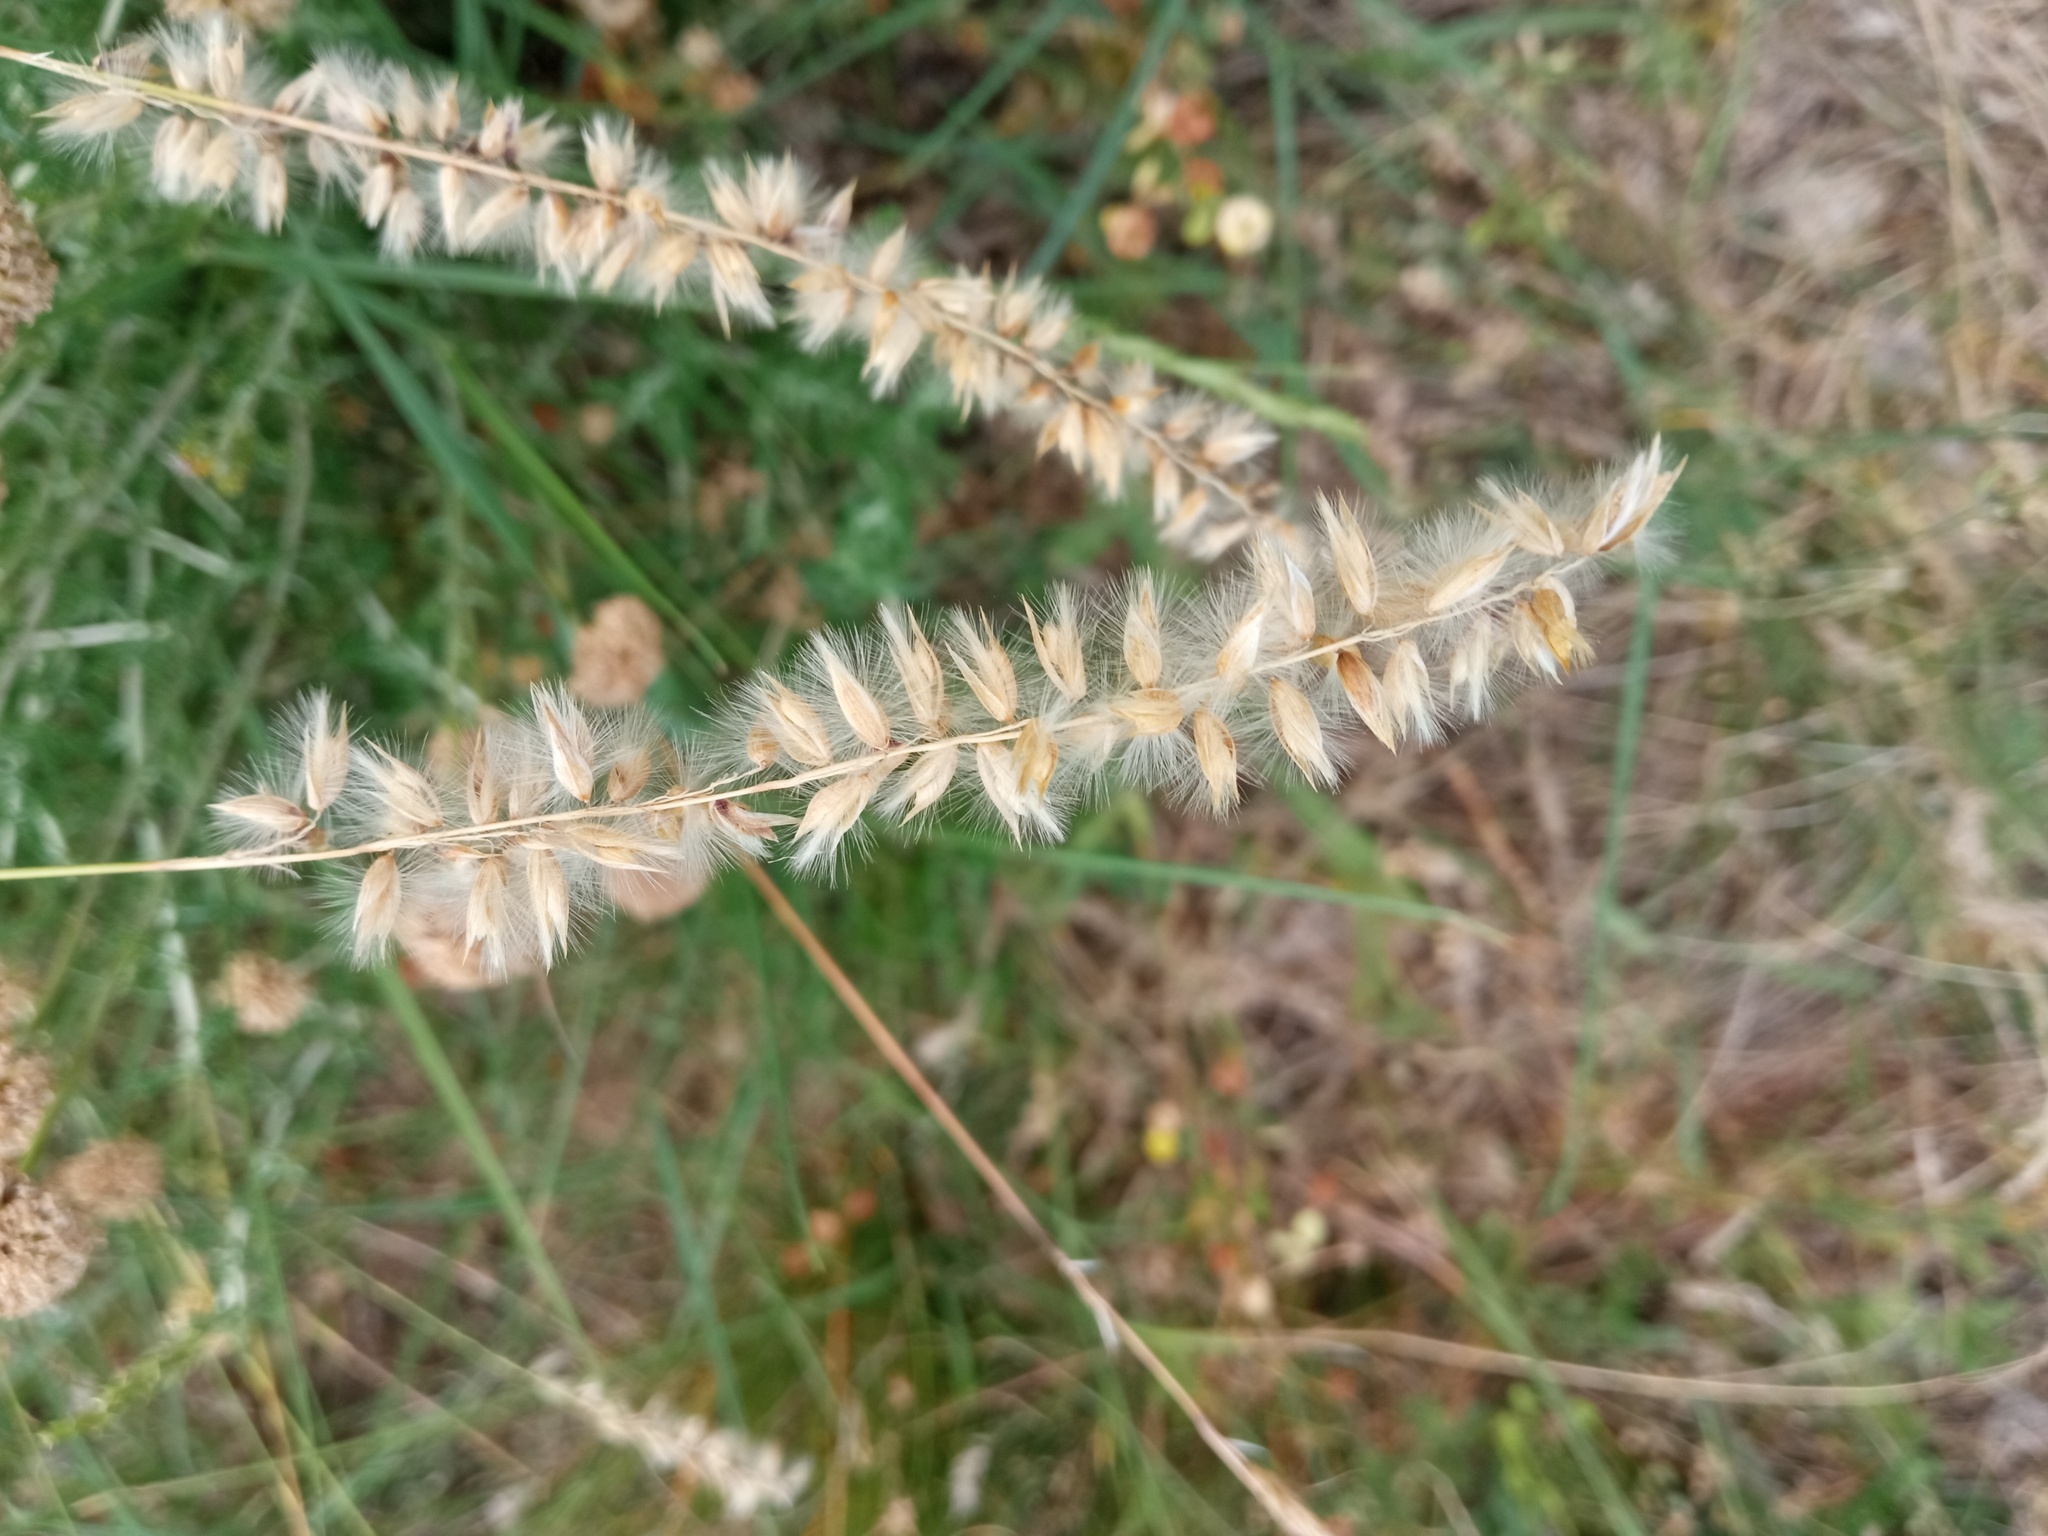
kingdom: Plantae
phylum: Tracheophyta
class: Liliopsida
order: Poales
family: Poaceae
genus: Melica
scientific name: Melica ciliata
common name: Hairy melicgrass
